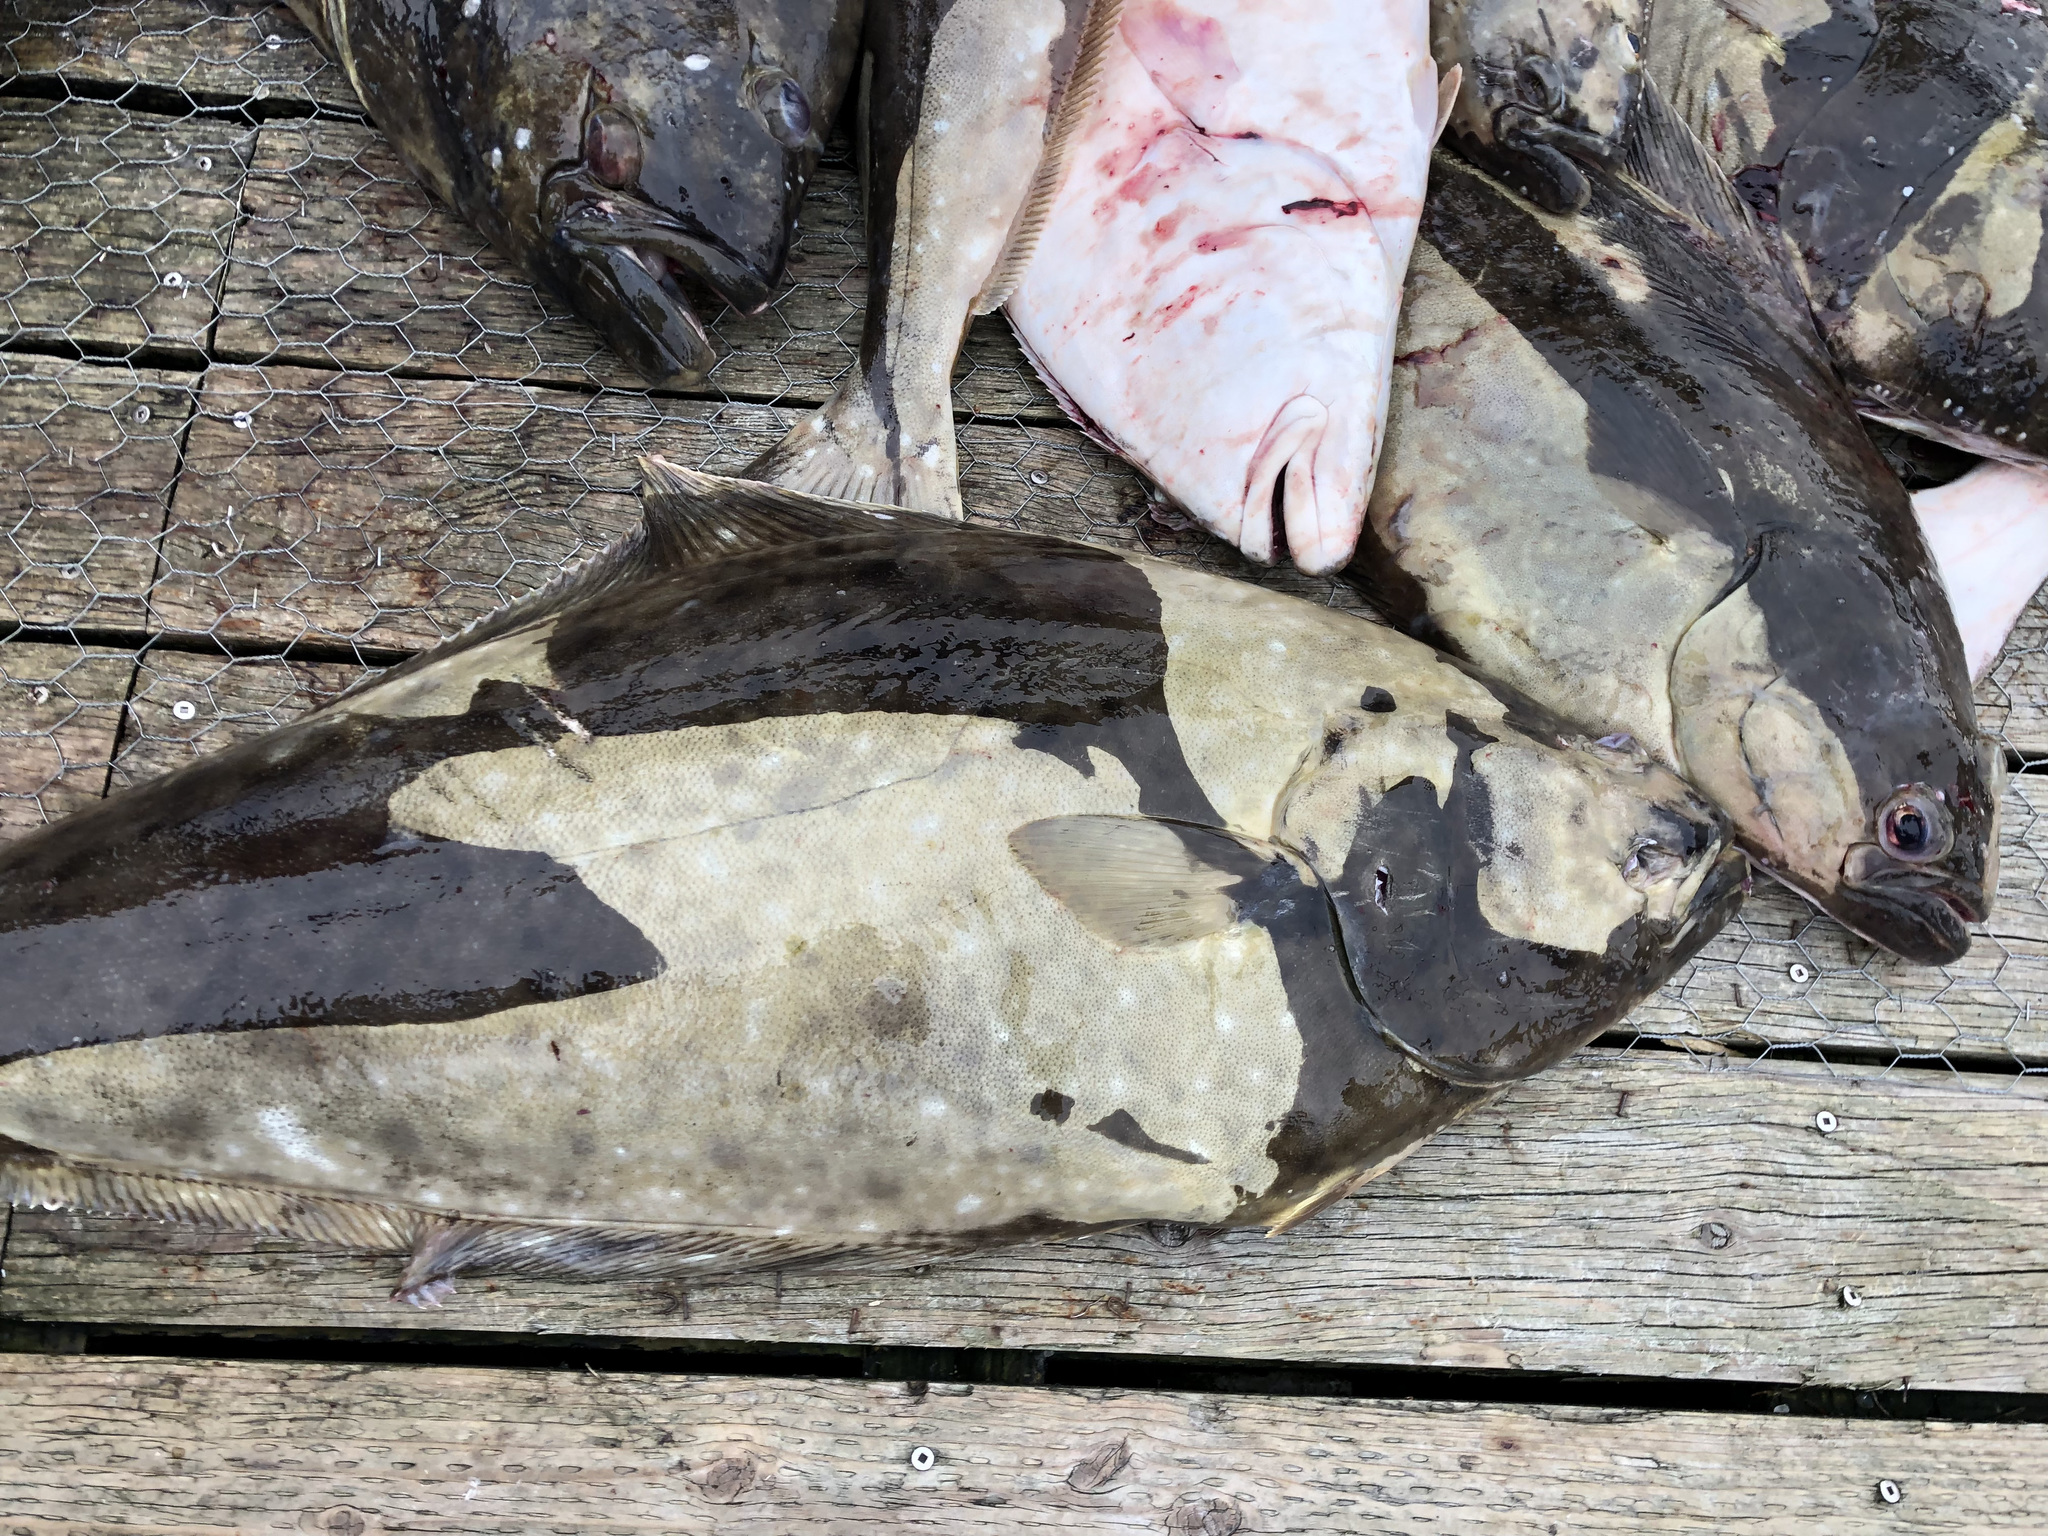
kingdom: Animalia
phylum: Chordata
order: Pleuronectiformes
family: Pleuronectidae
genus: Hippoglossus
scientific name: Hippoglossus stenolepis
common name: Pacific halibut
